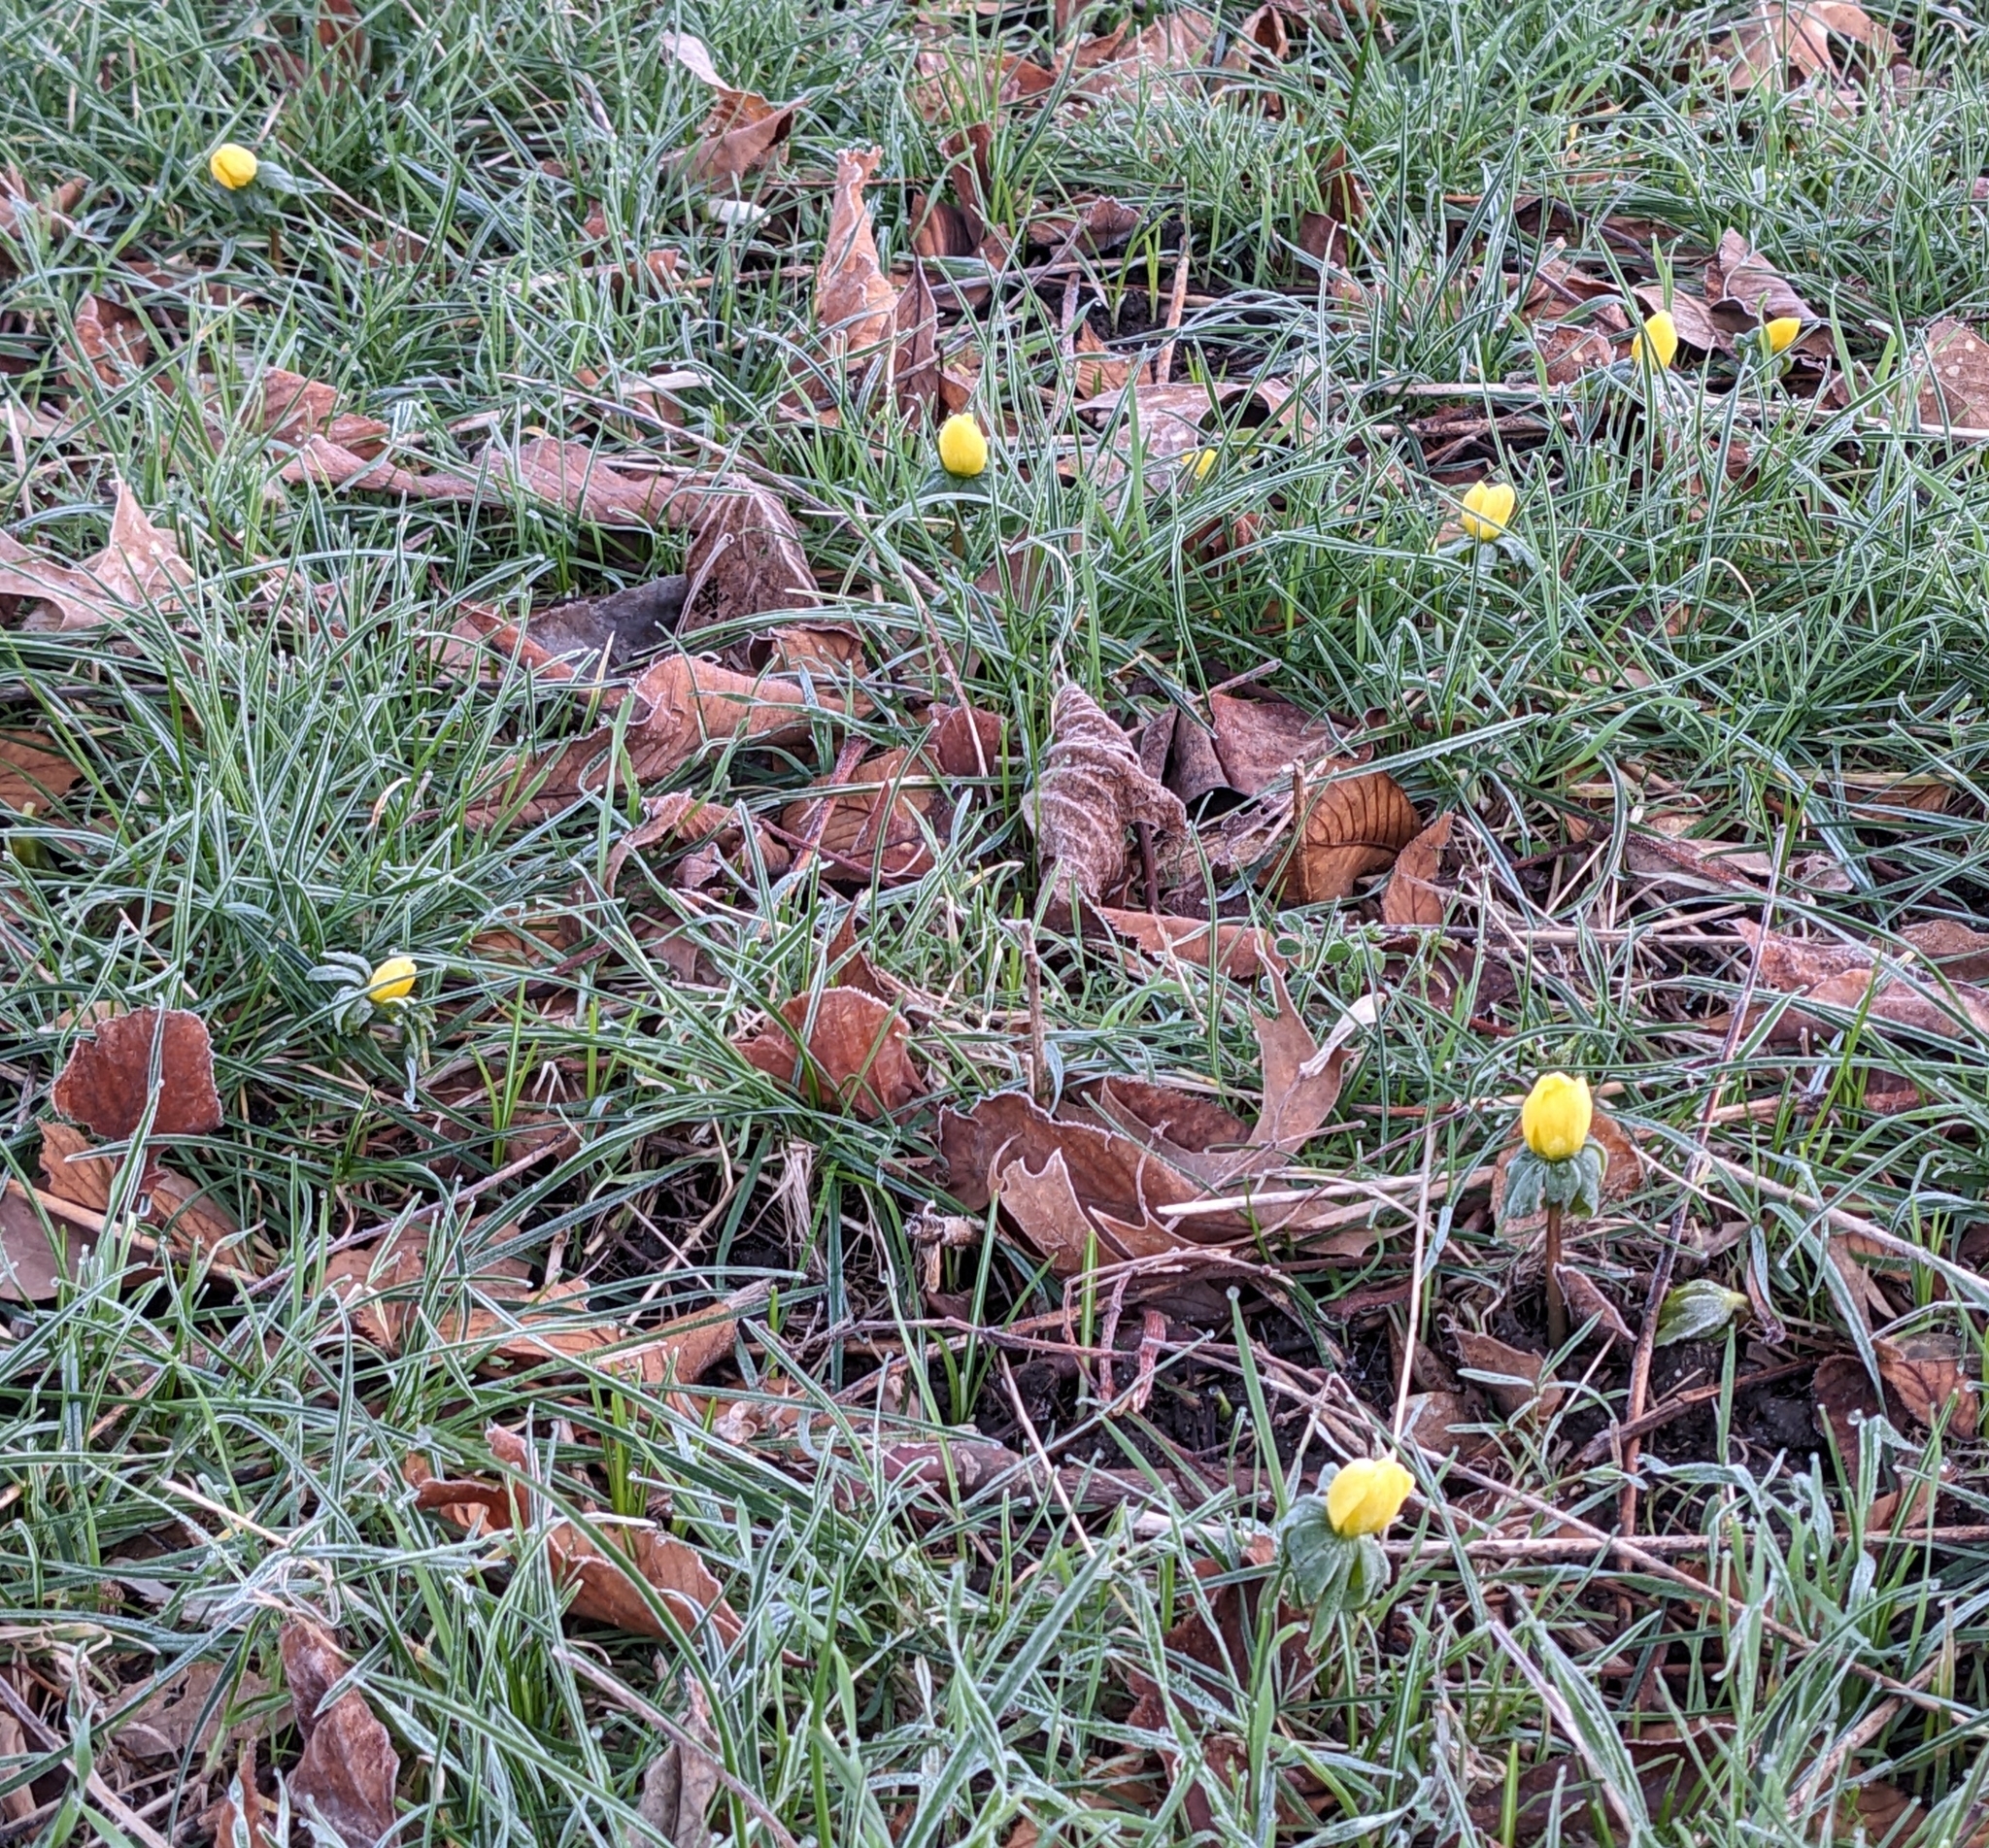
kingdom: Plantae
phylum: Tracheophyta
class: Magnoliopsida
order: Ranunculales
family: Ranunculaceae
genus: Eranthis
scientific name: Eranthis hyemalis
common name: Winter aconite
